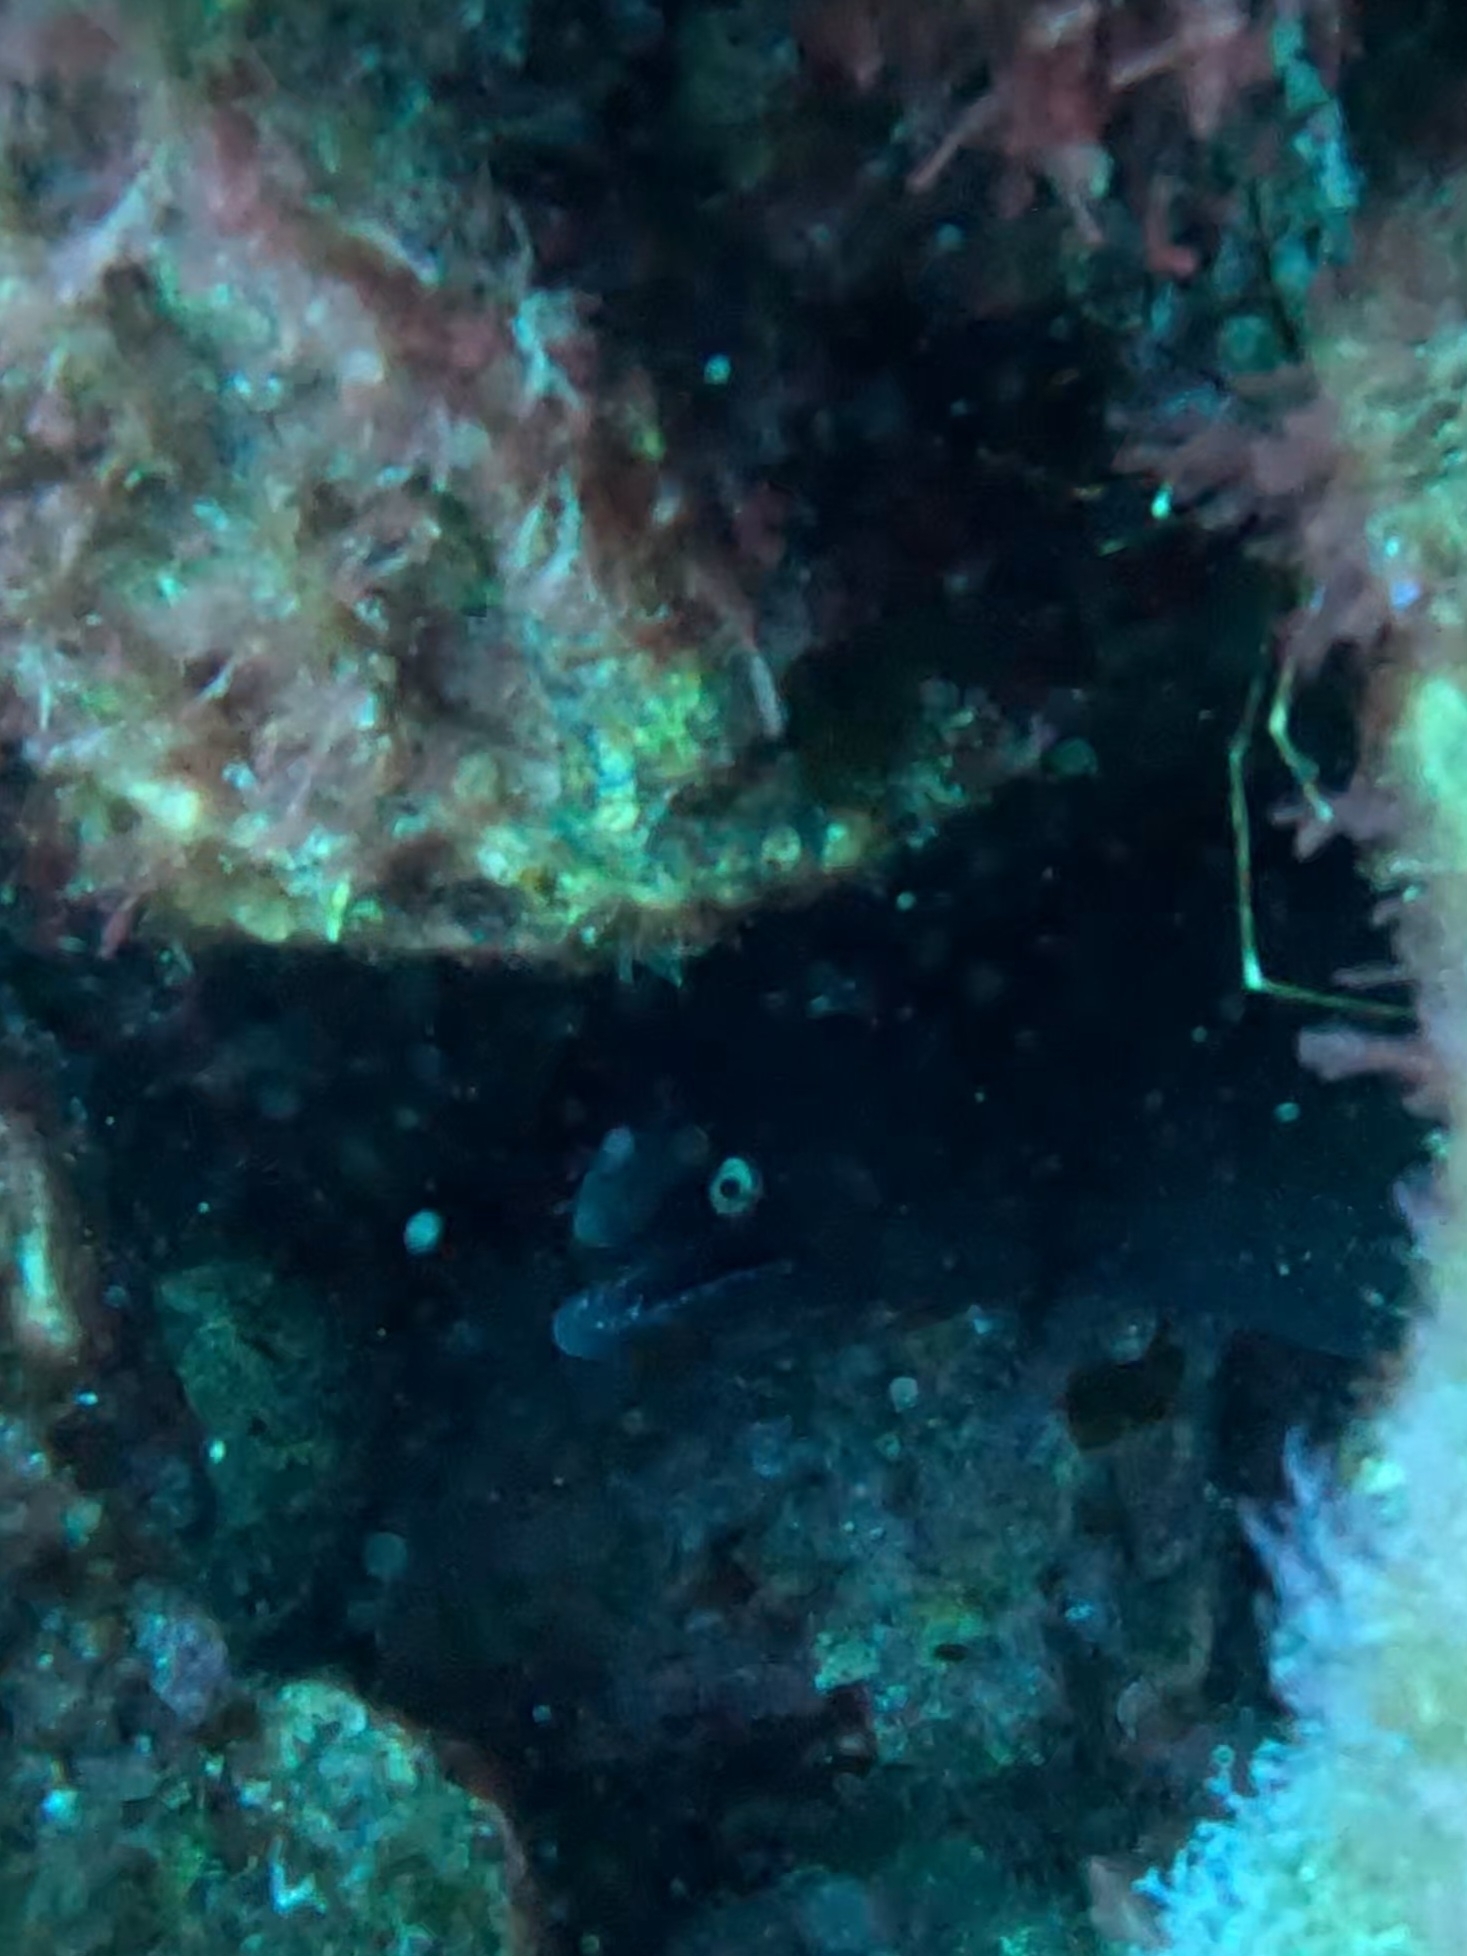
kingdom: Animalia
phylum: Chordata
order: Anguilliformes
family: Muraenidae
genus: Muraena
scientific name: Muraena augusti
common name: Mediterranean moray
